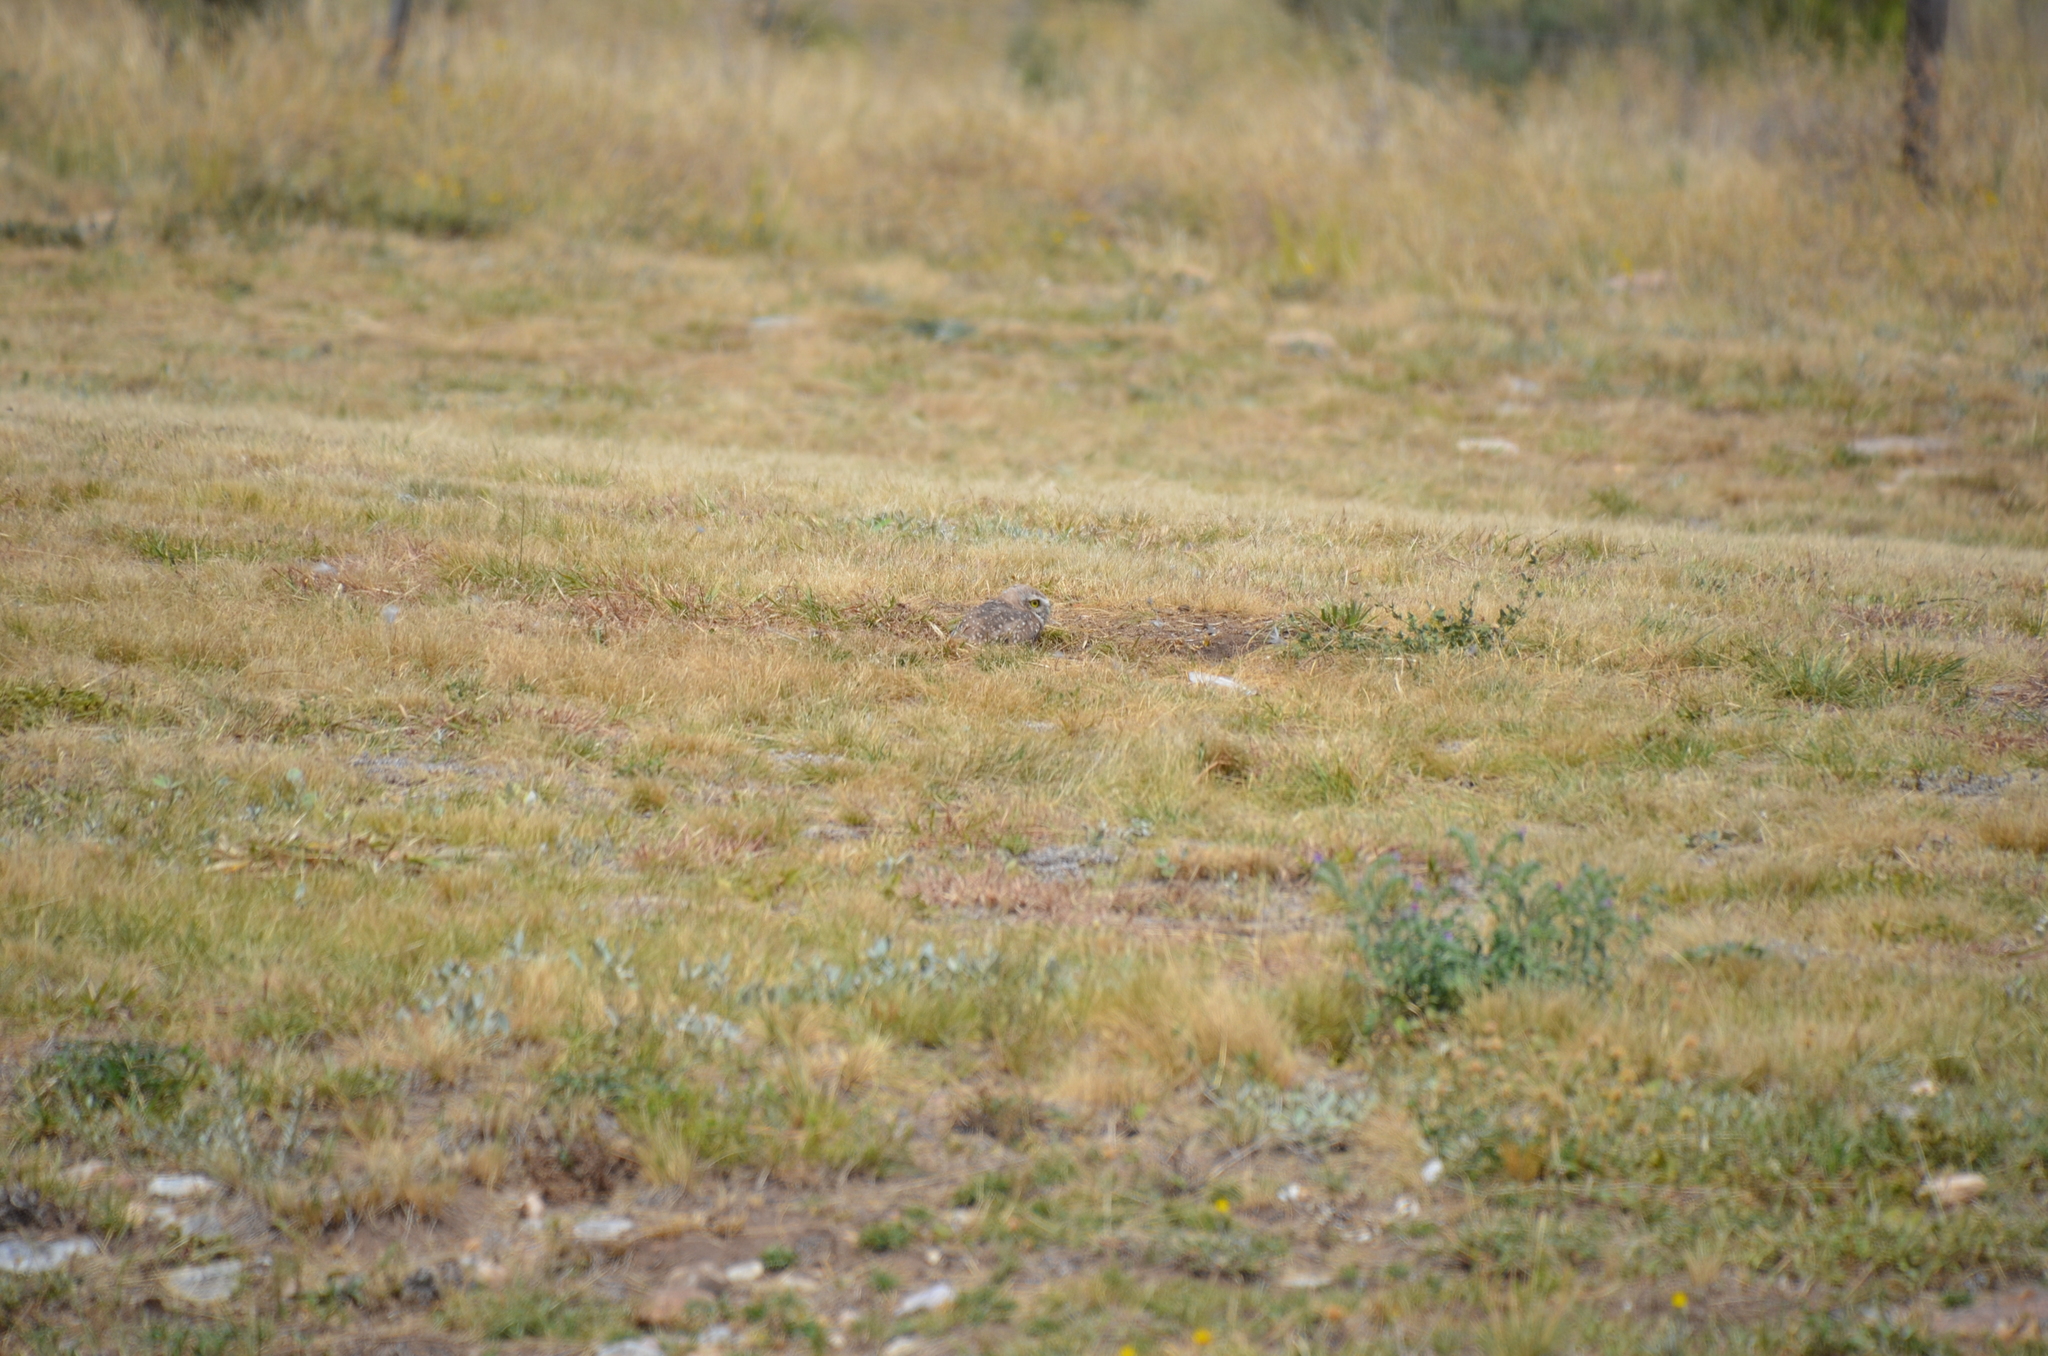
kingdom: Animalia
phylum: Chordata
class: Aves
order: Strigiformes
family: Strigidae
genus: Athene
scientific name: Athene cunicularia
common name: Burrowing owl
